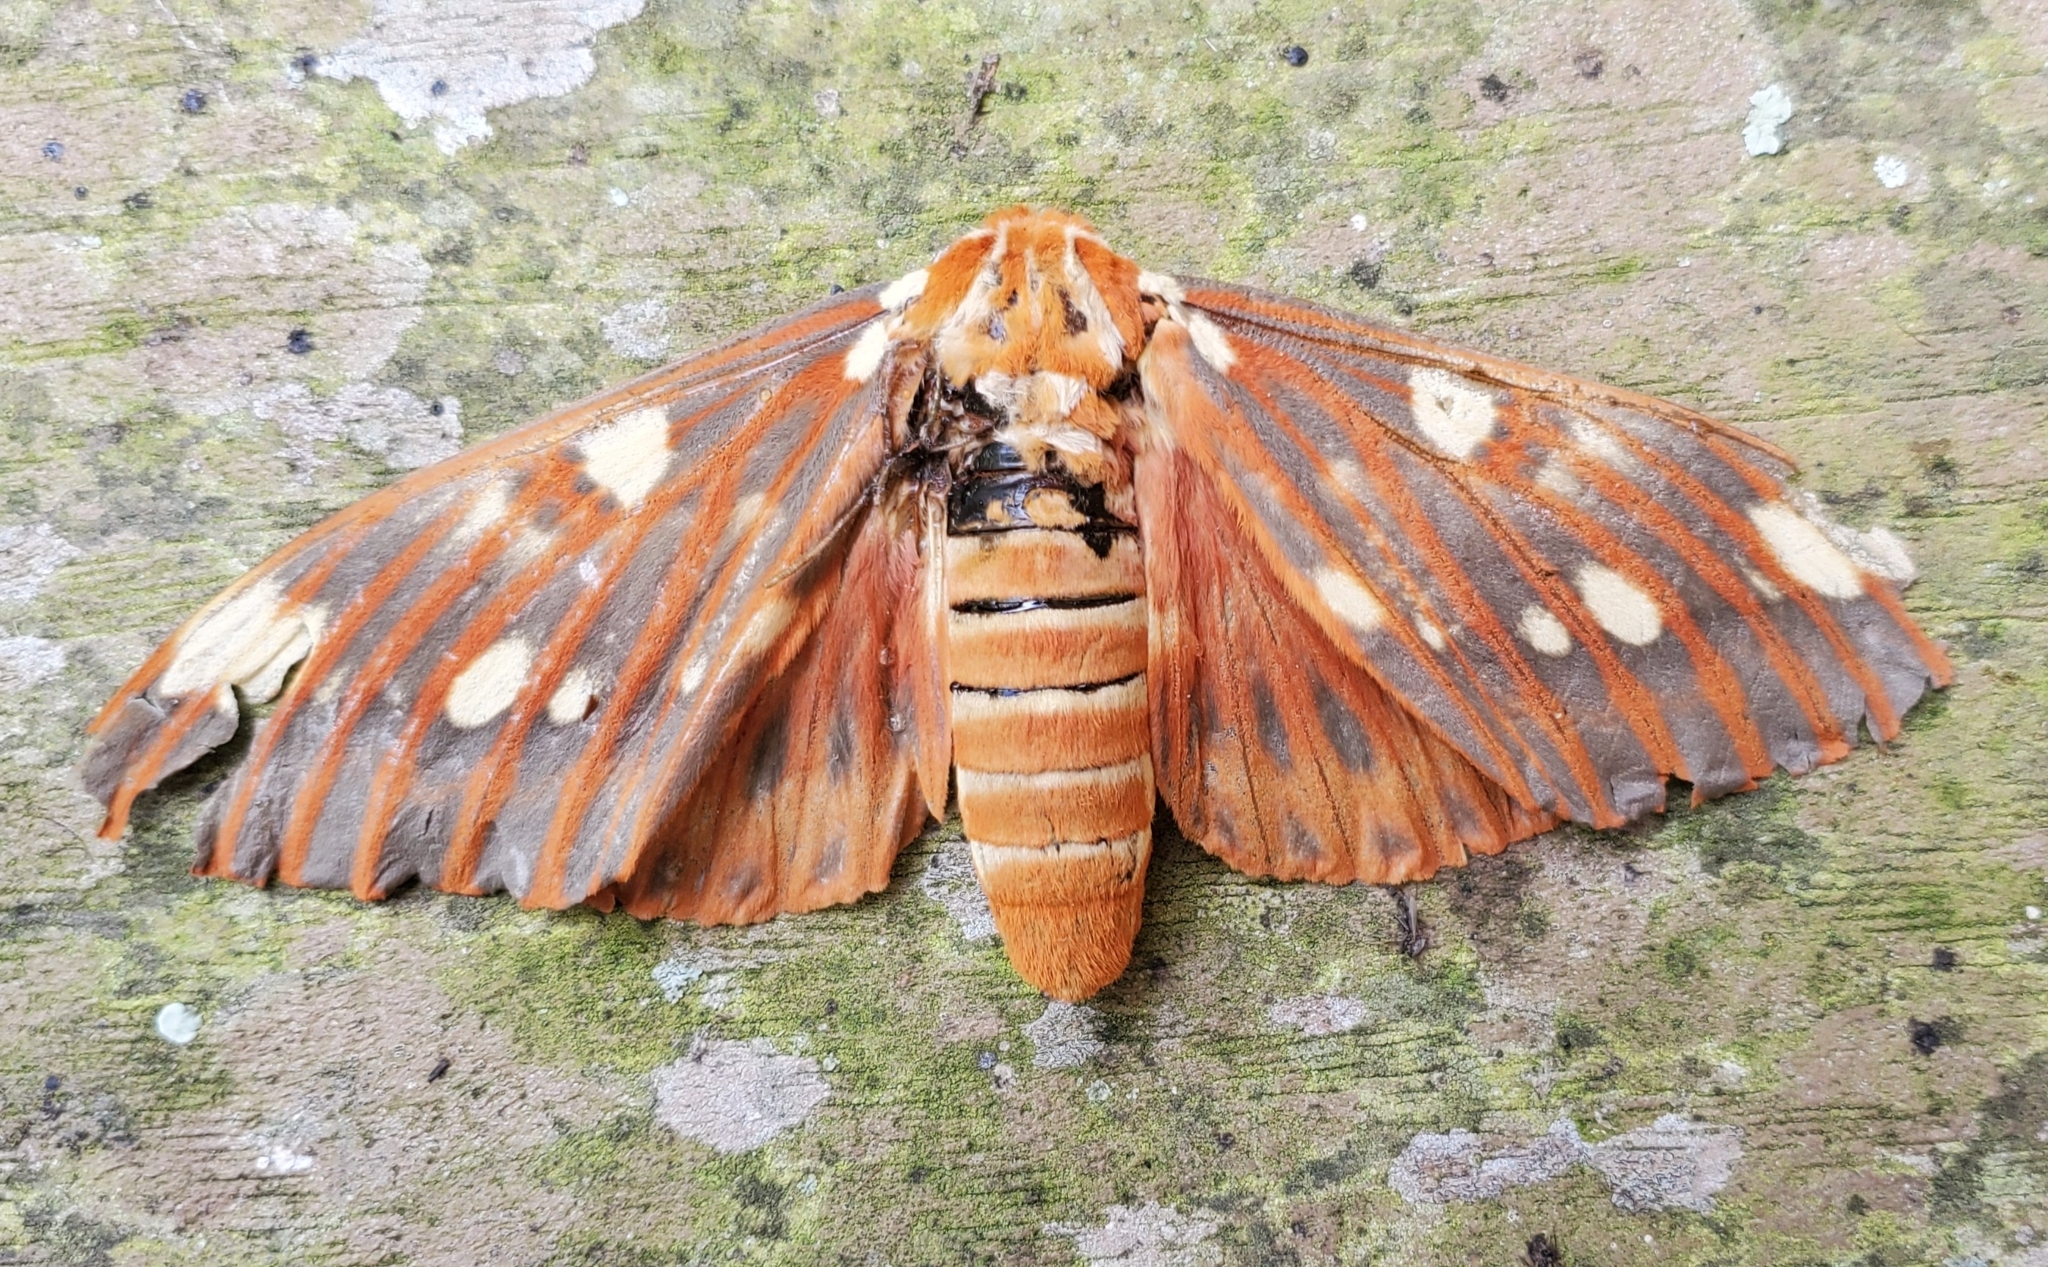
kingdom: Animalia
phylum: Arthropoda
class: Insecta
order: Lepidoptera
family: Saturniidae
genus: Citheronia
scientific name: Citheronia regalis
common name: Hickory horned devil
